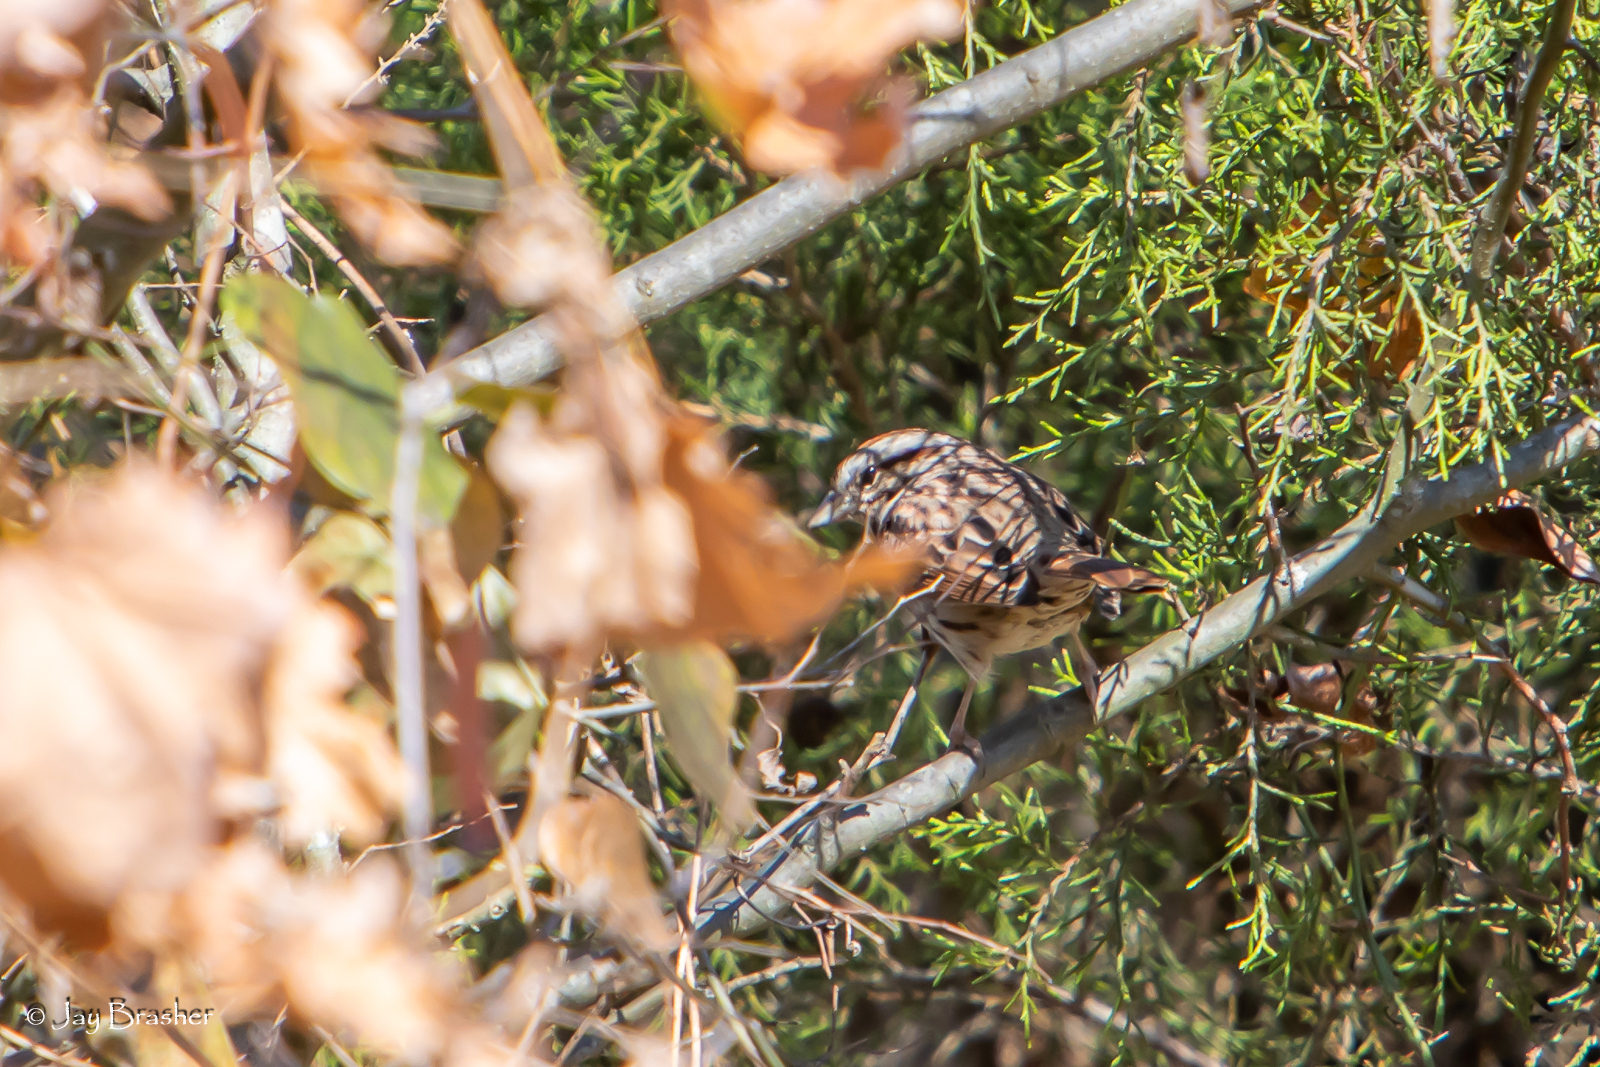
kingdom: Animalia
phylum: Chordata
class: Aves
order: Passeriformes
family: Passerellidae
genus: Spizella
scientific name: Spizella passerina
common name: Chipping sparrow
